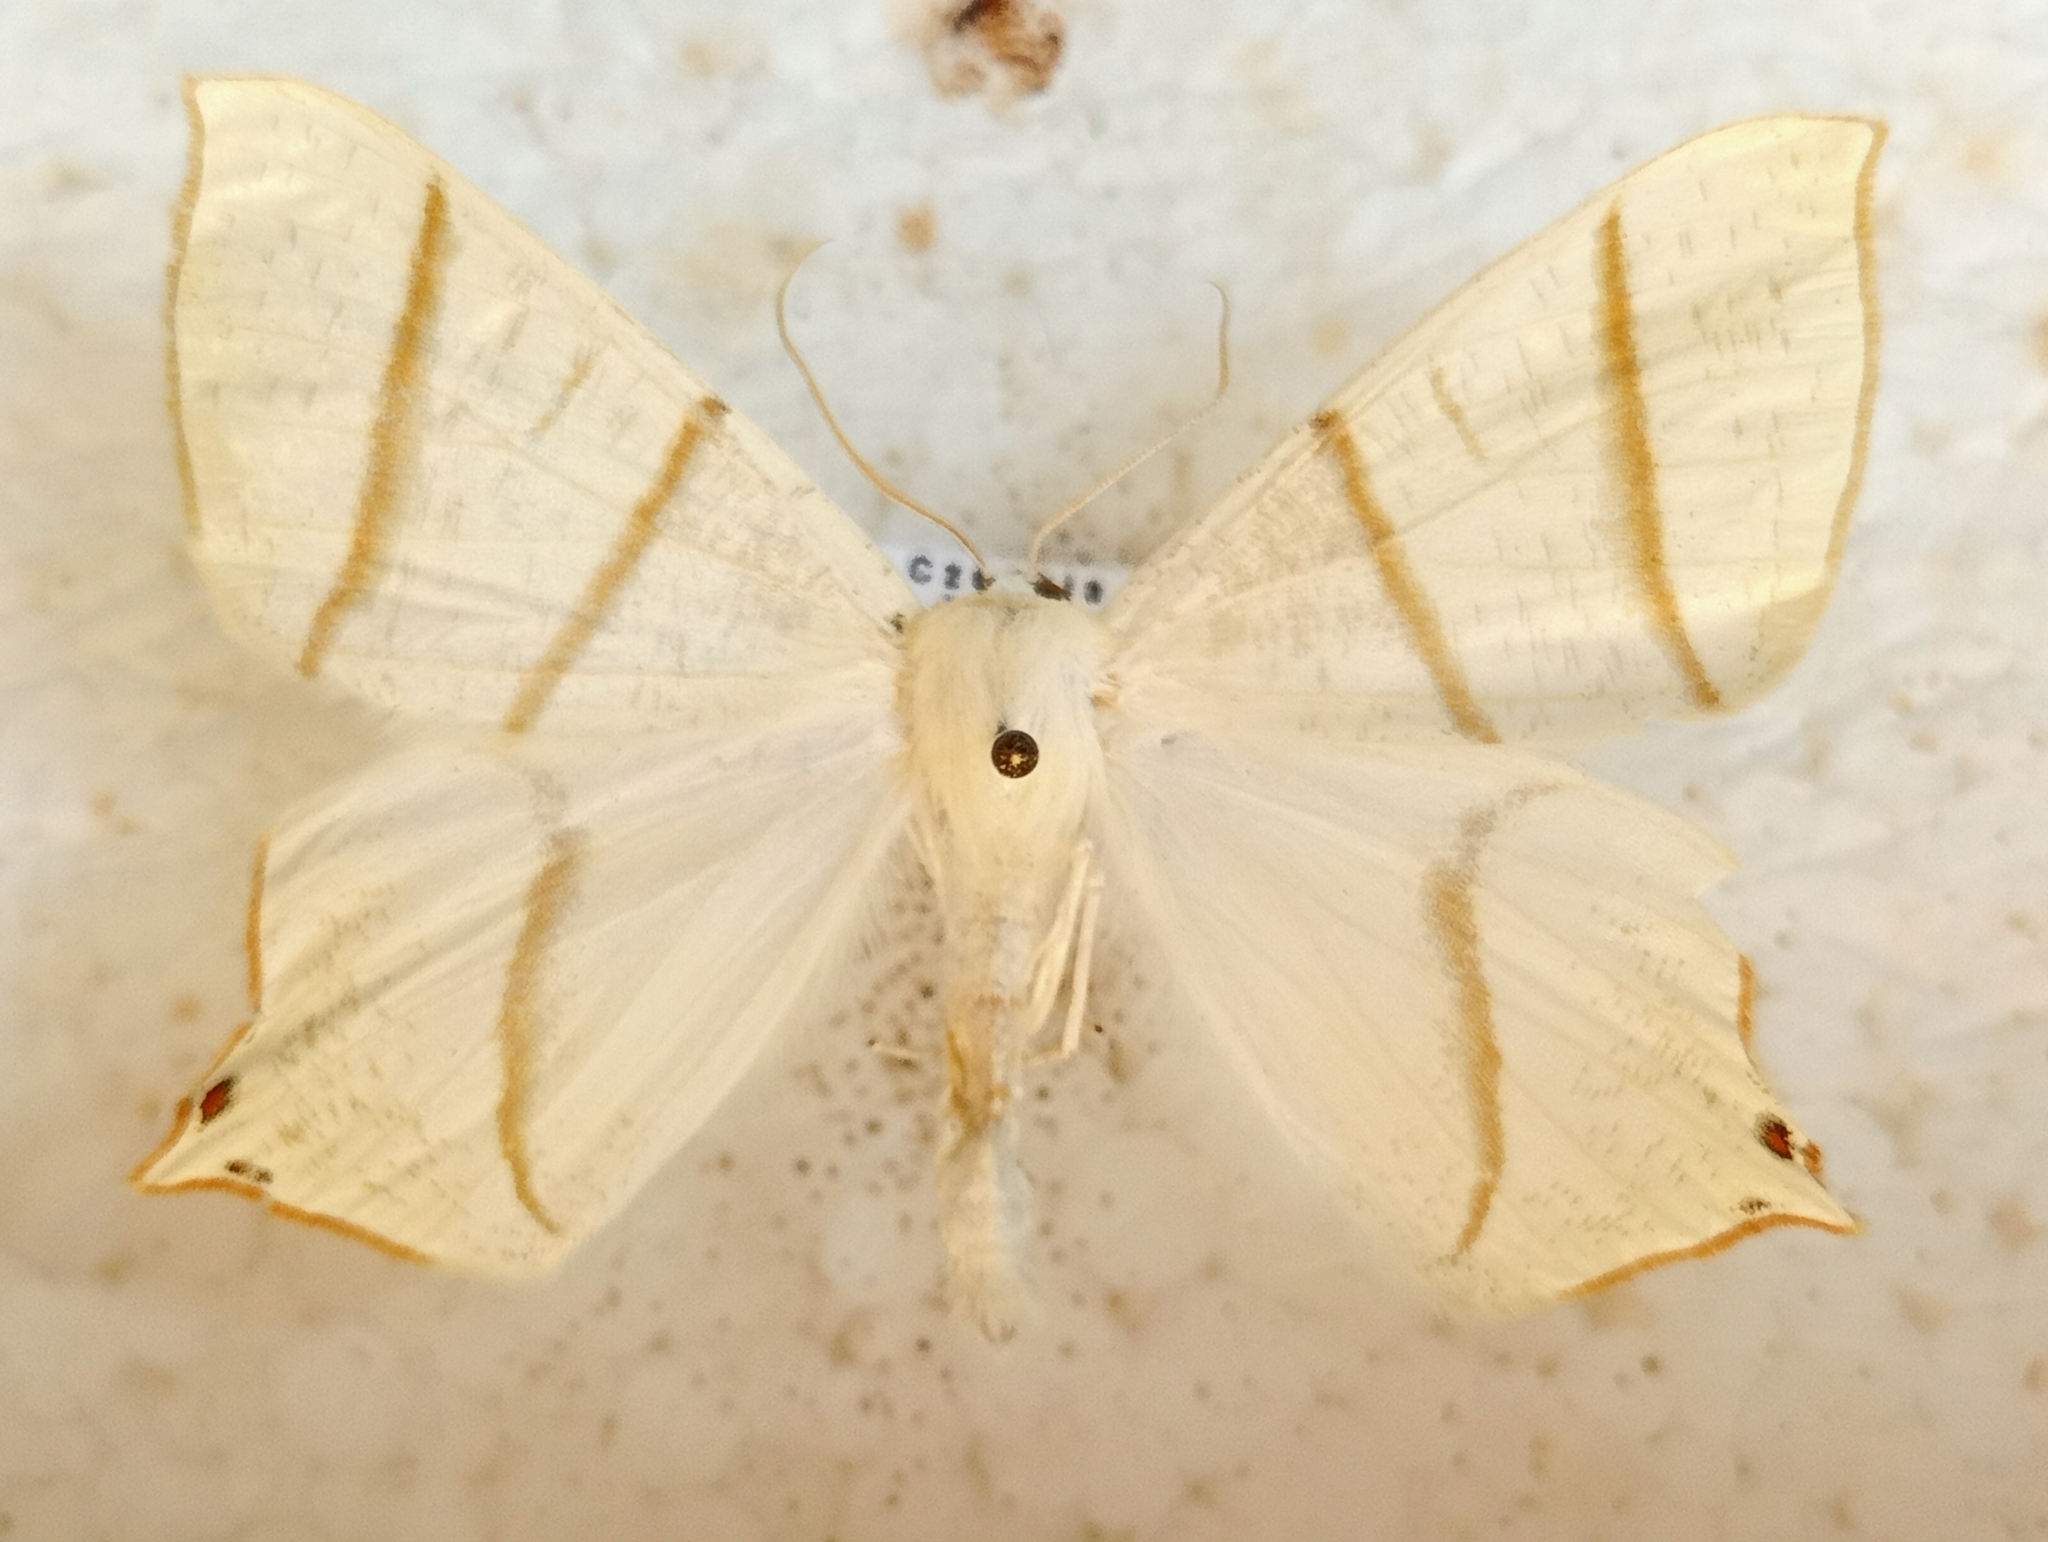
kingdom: Animalia
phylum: Arthropoda
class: Insecta
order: Lepidoptera
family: Geometridae
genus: Ourapteryx
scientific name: Ourapteryx sambucaria
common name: Swallow-tailed moth
